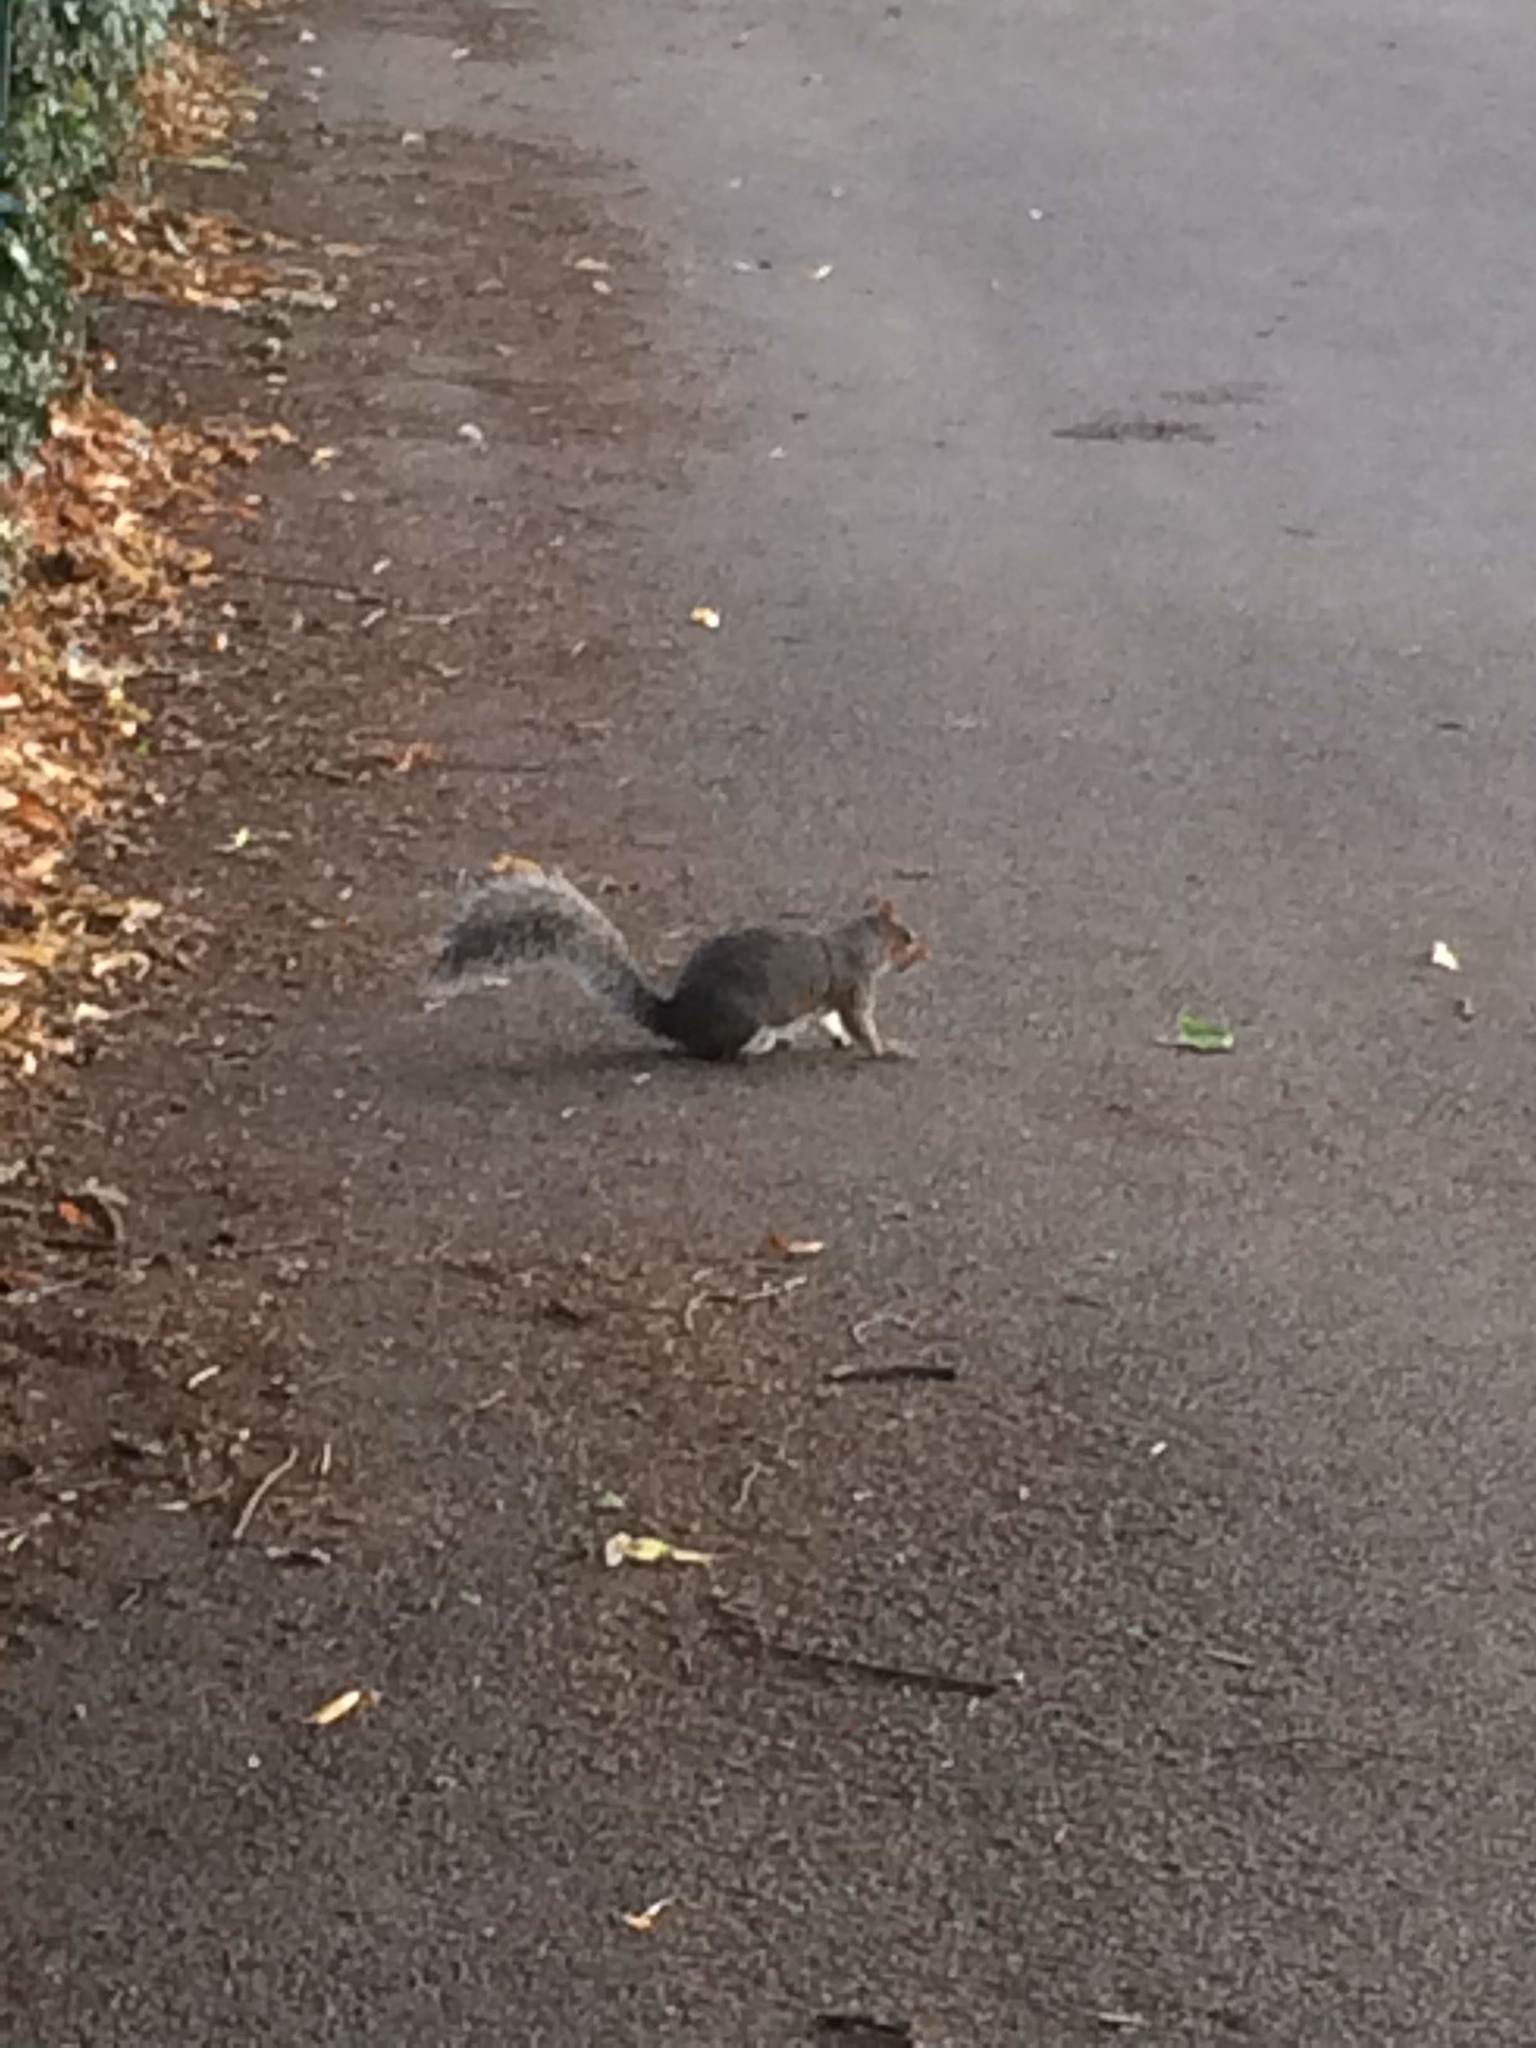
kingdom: Animalia
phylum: Chordata
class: Mammalia
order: Rodentia
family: Sciuridae
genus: Sciurus
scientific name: Sciurus carolinensis
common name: Eastern gray squirrel
